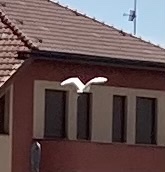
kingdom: Animalia
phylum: Chordata
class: Aves
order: Pelecaniformes
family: Ardeidae
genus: Egretta
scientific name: Egretta garzetta
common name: Little egret
